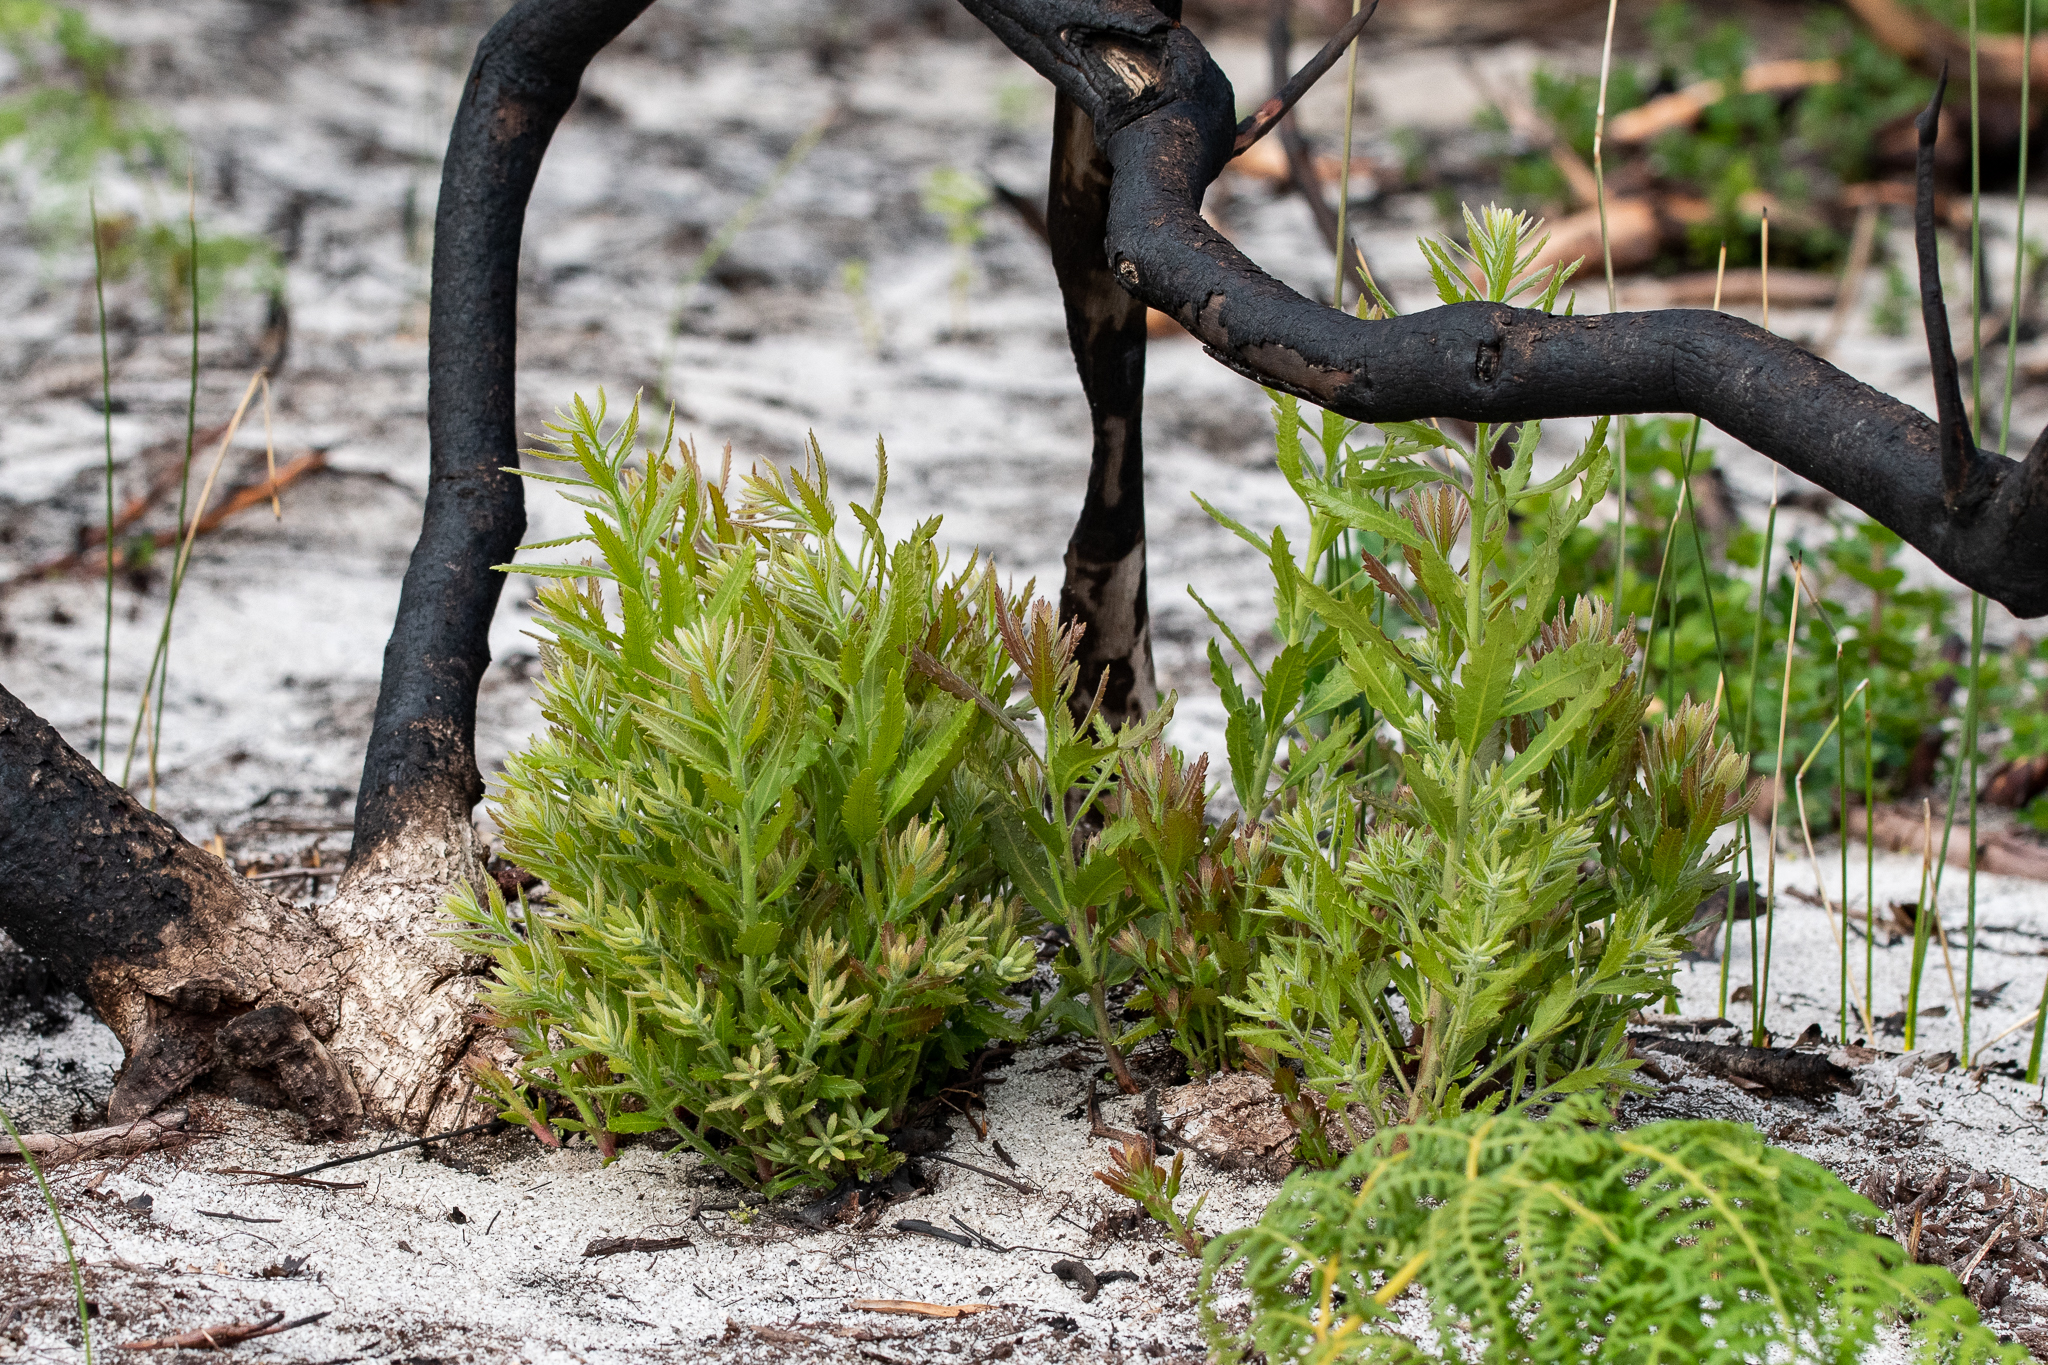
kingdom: Plantae
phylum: Tracheophyta
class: Magnoliopsida
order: Fagales
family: Myricaceae
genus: Morella
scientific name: Morella serrata
